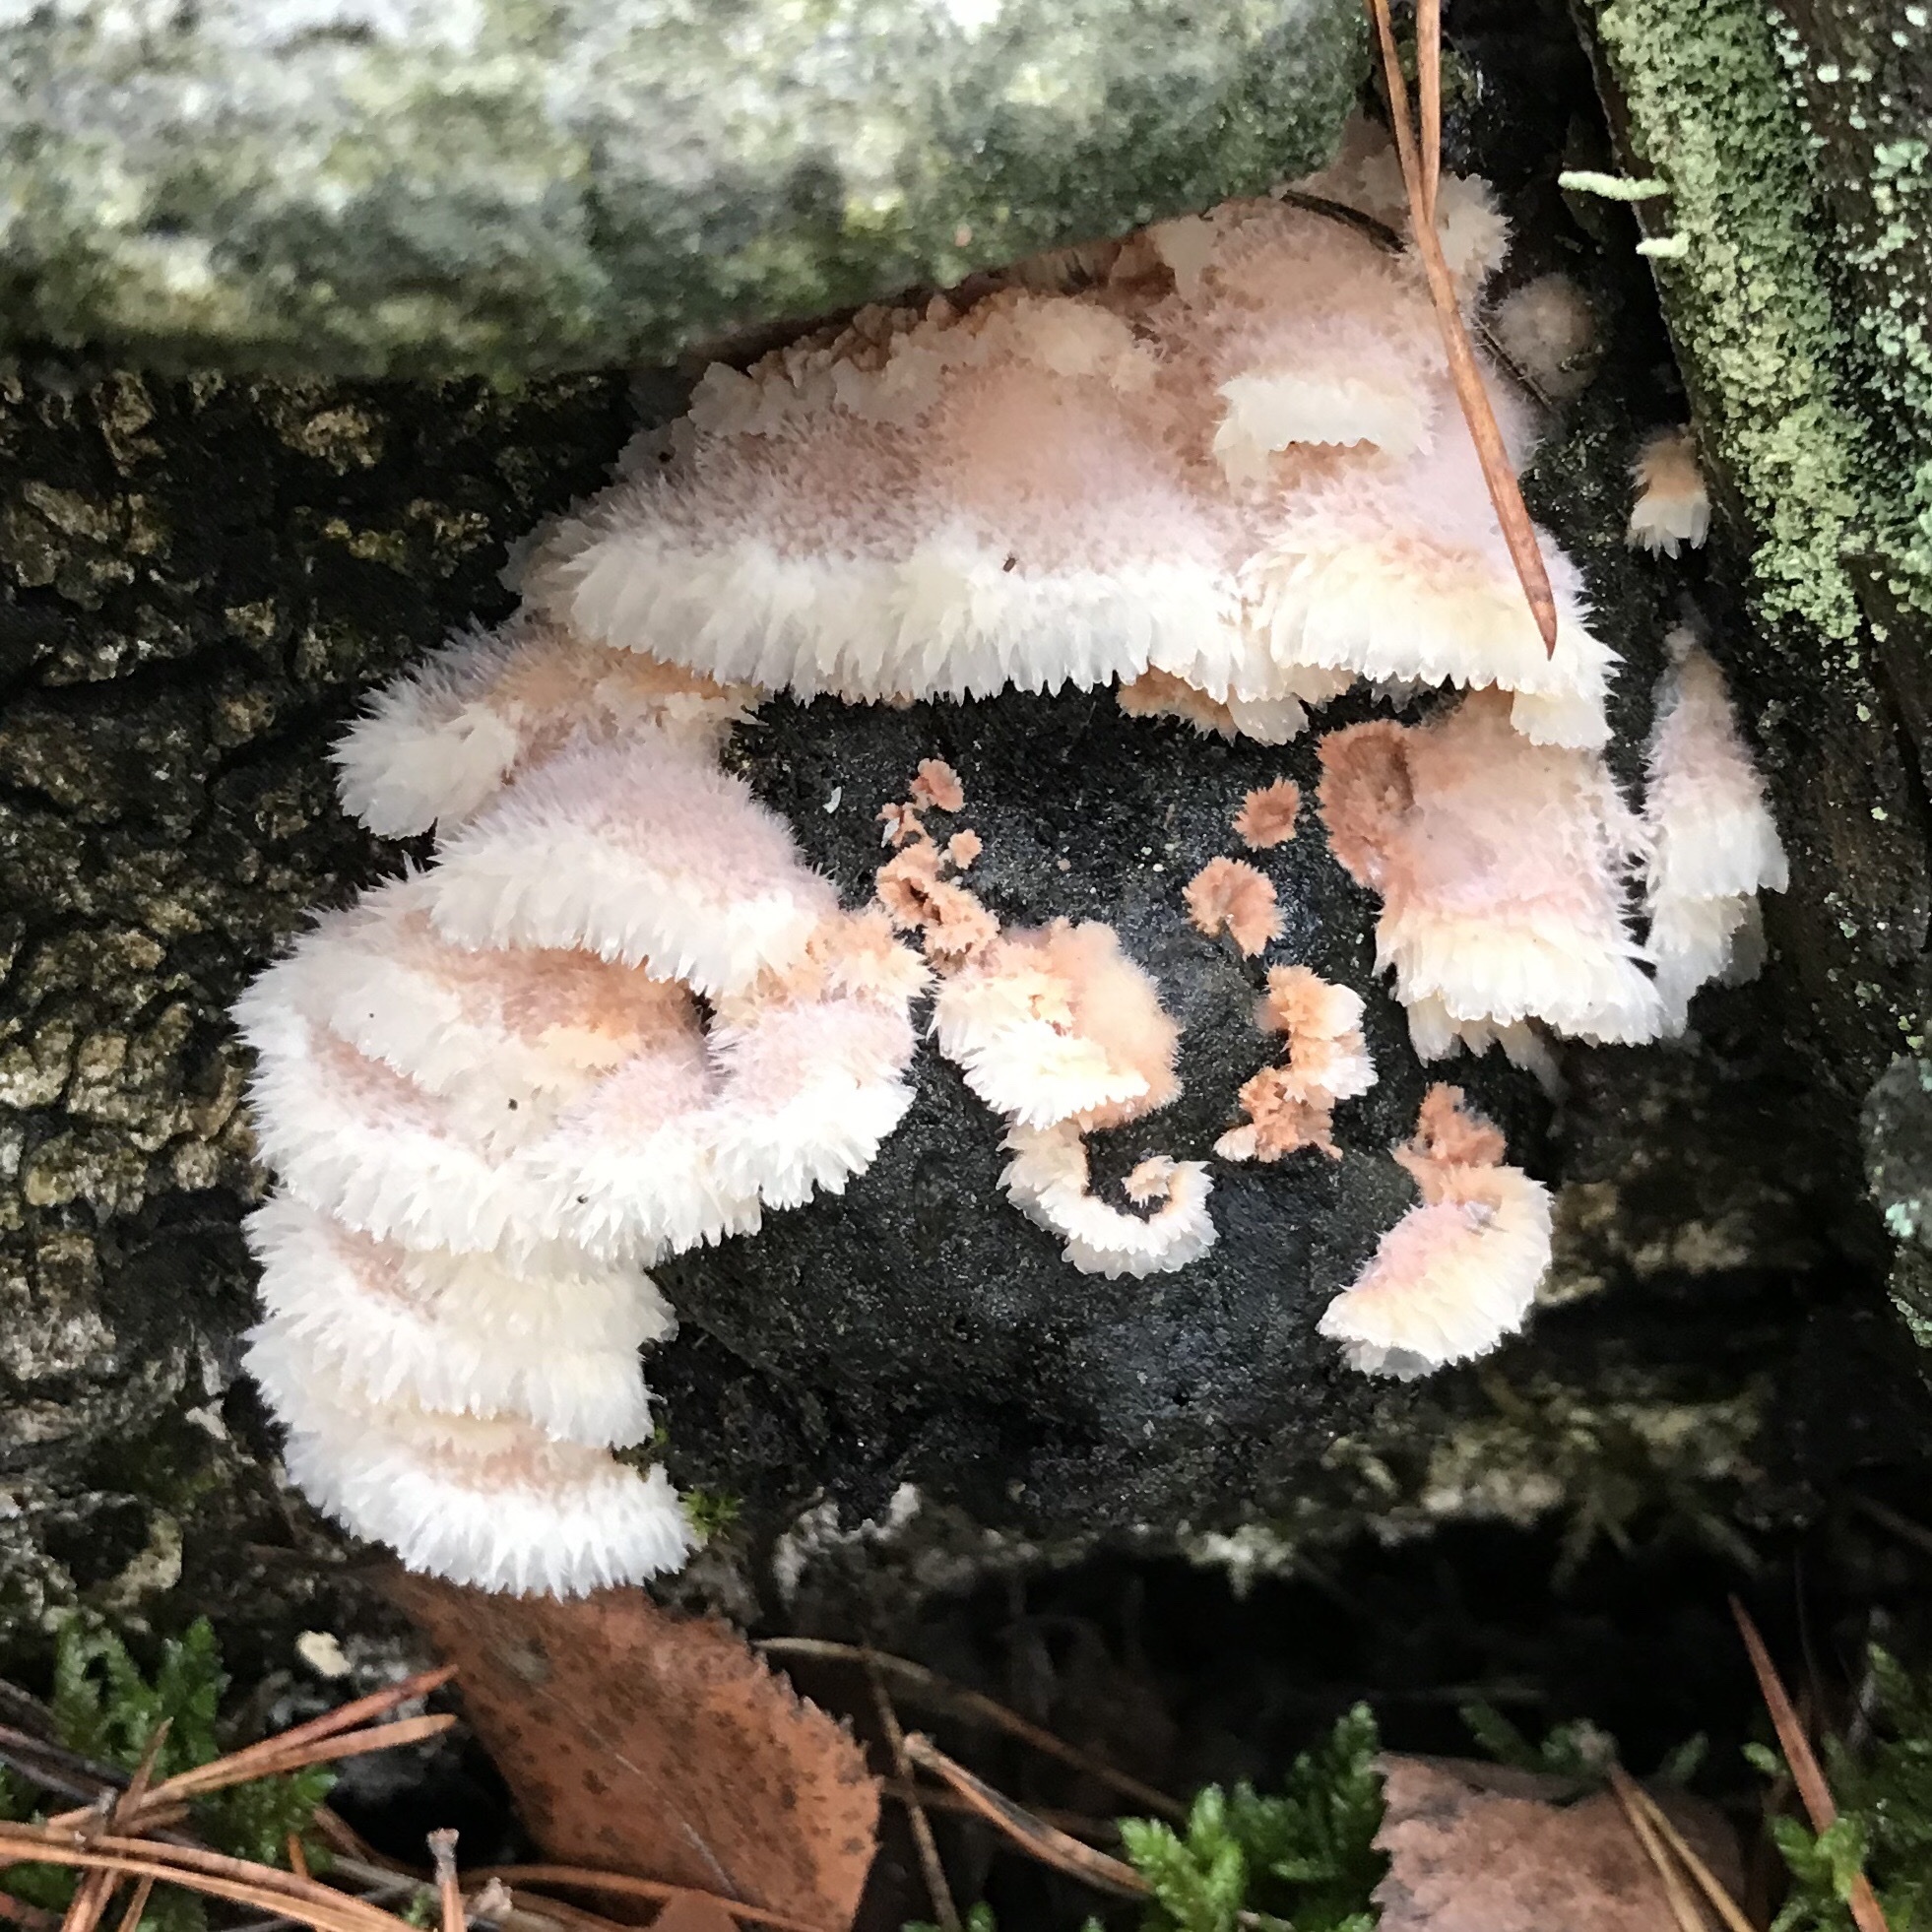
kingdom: Fungi
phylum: Basidiomycota
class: Agaricomycetes
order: Polyporales
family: Meruliaceae
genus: Phlebia
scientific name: Phlebia tremellosa
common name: Jelly rot
